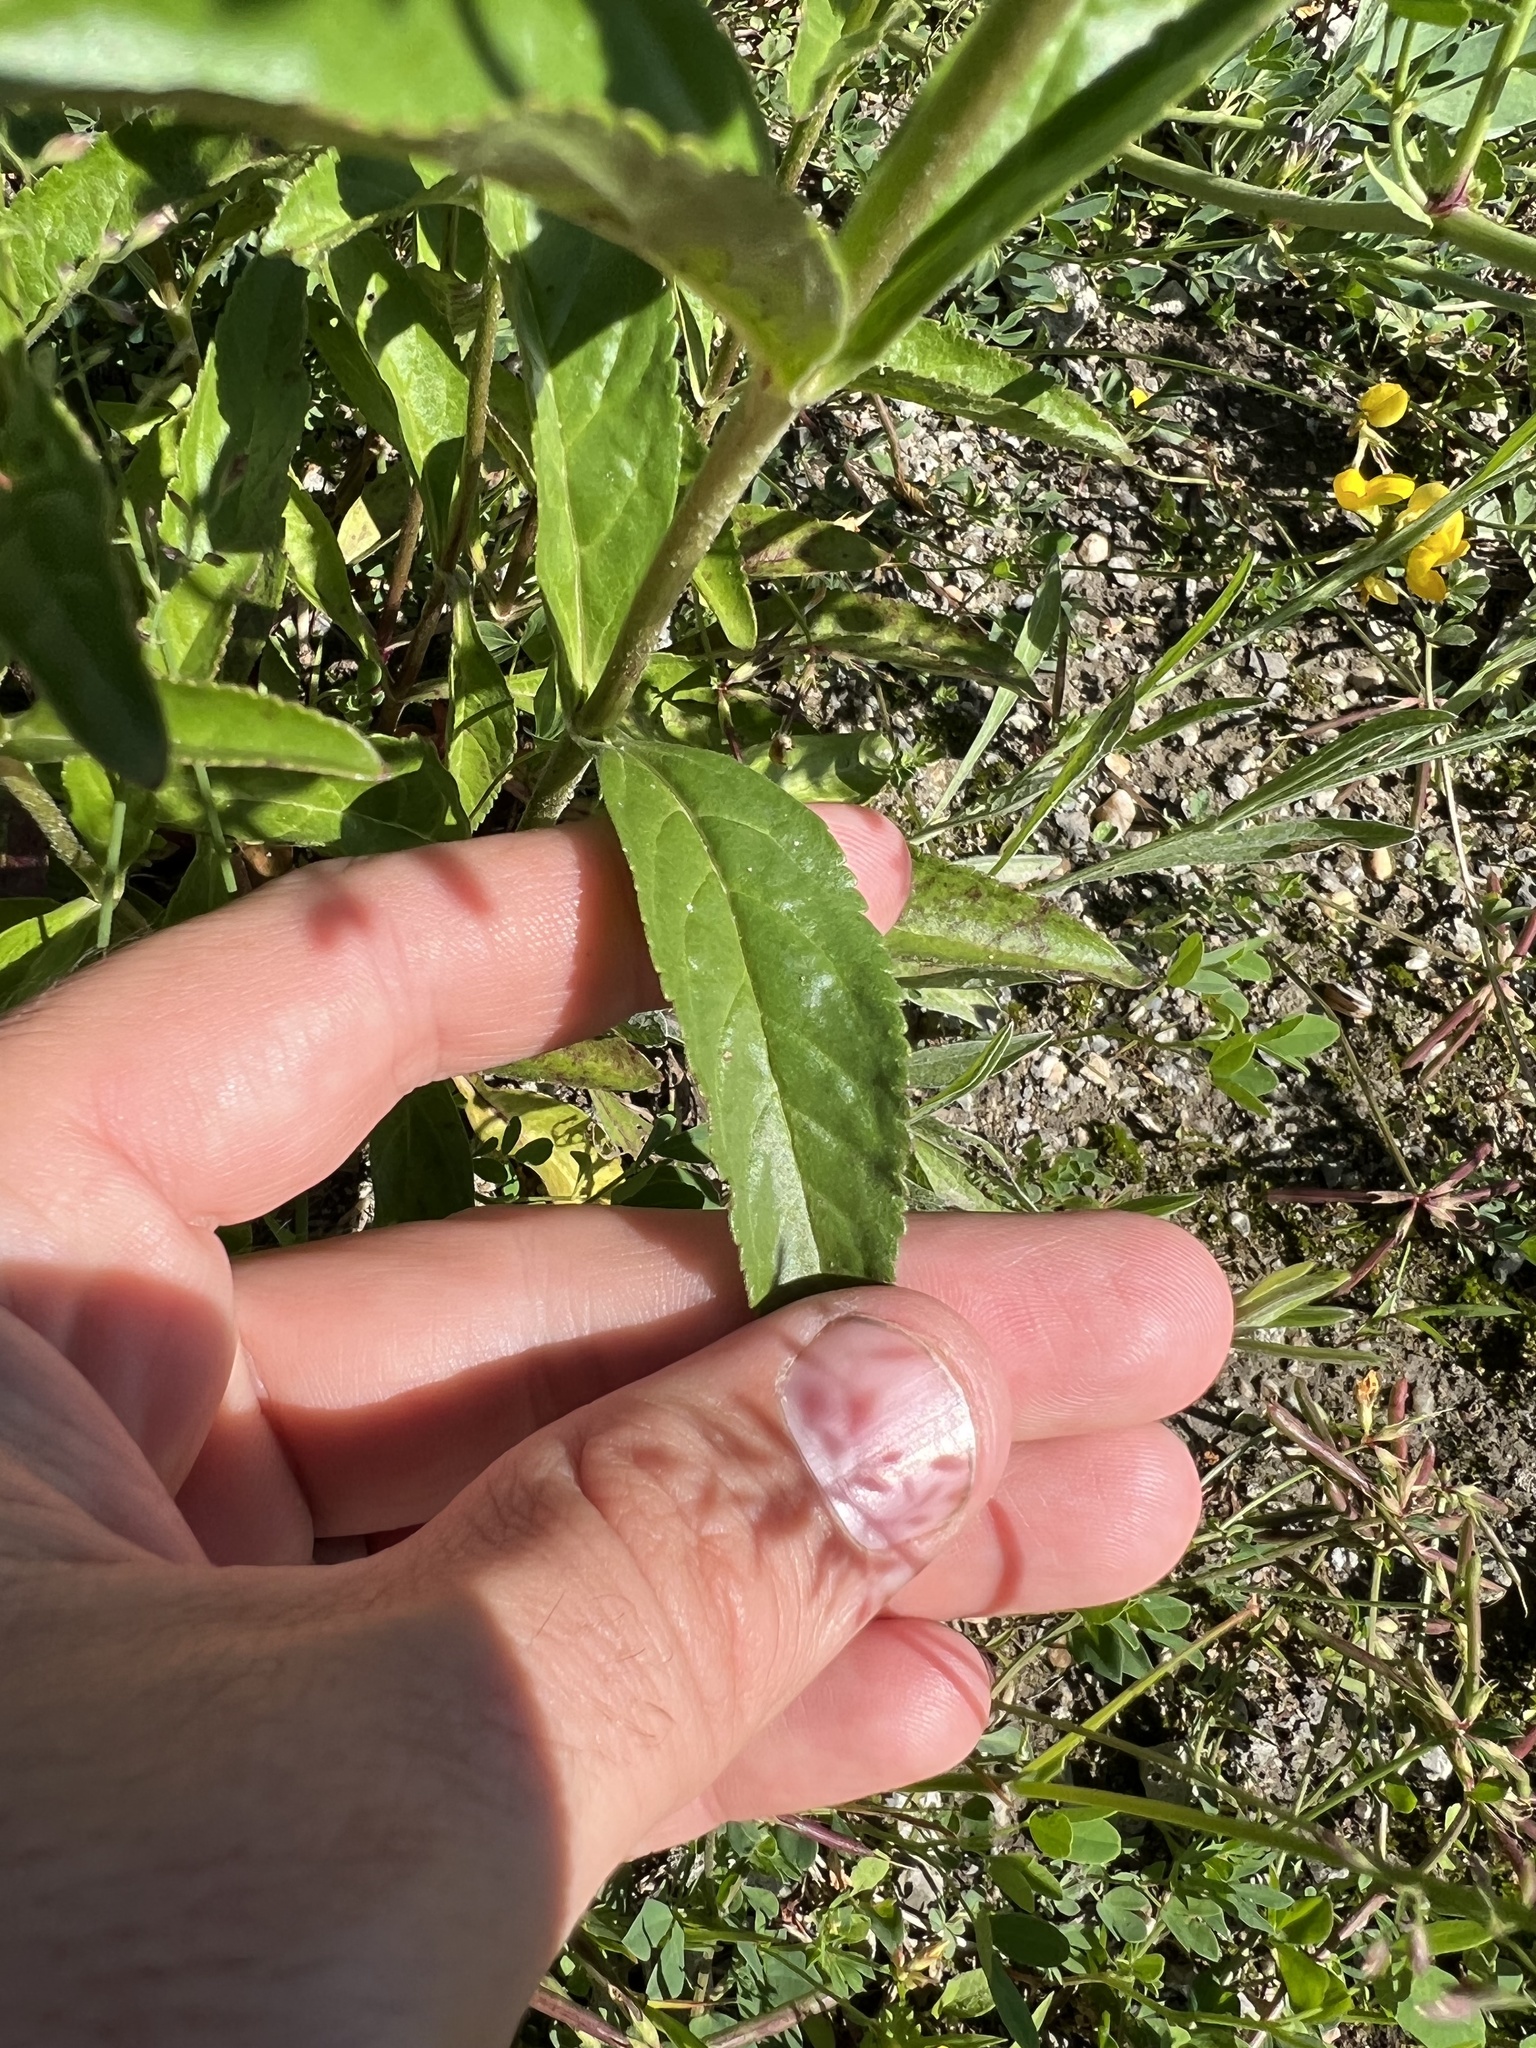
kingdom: Plantae
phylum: Tracheophyta
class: Magnoliopsida
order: Lamiales
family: Plantaginaceae
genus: Veronica
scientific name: Veronica orchidea
